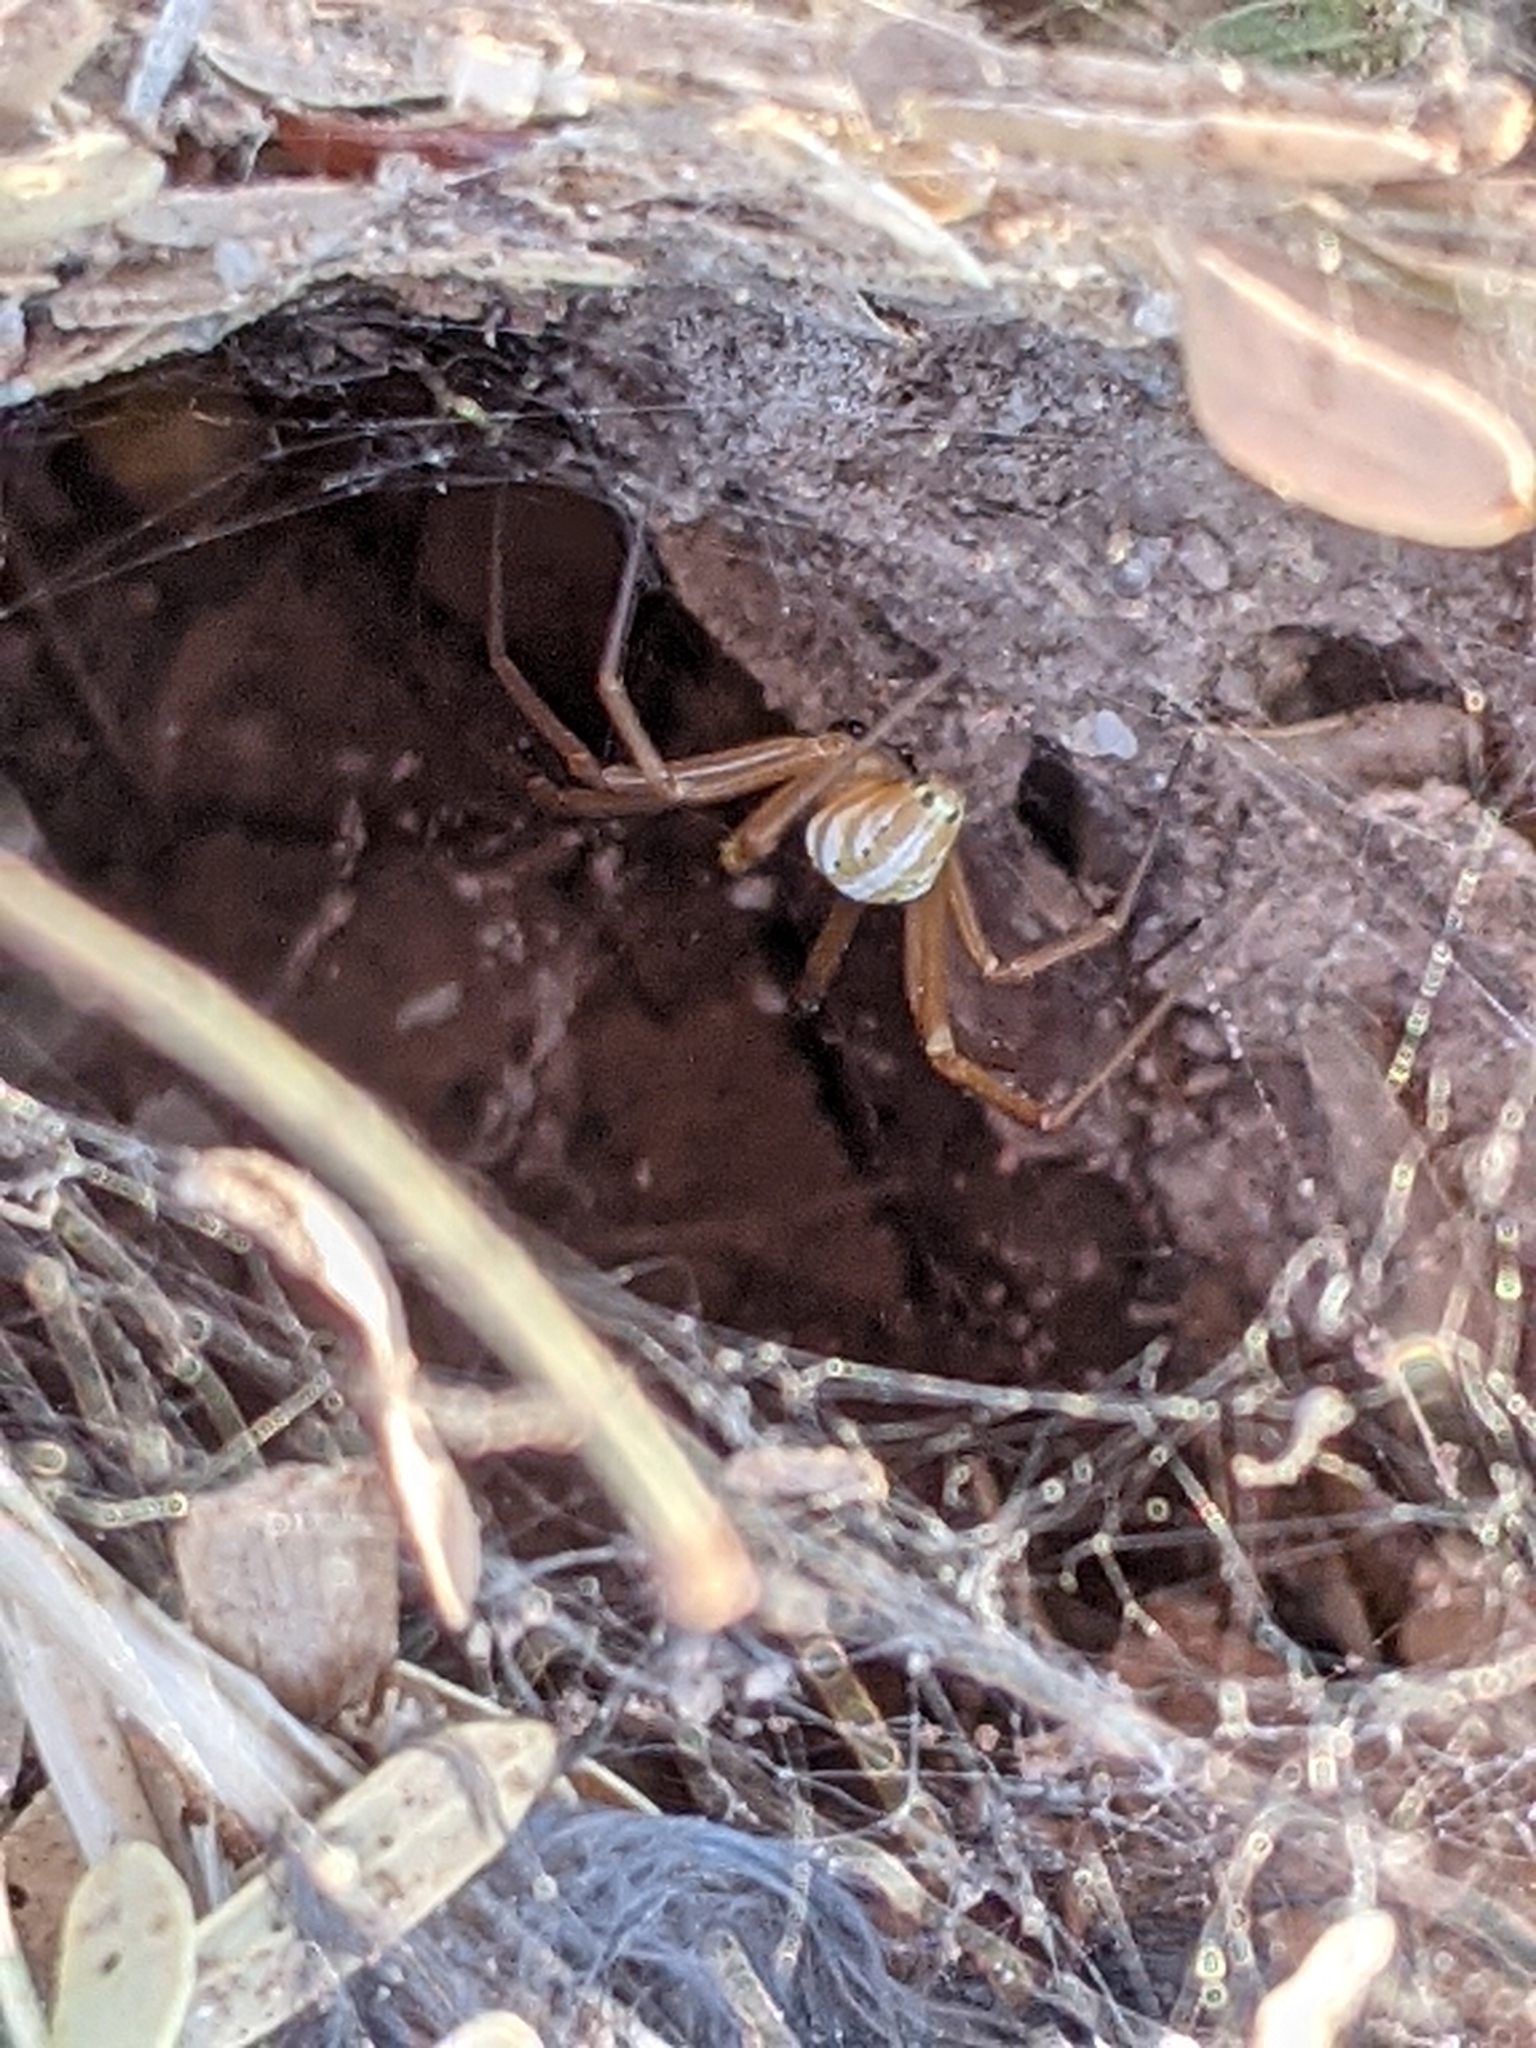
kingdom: Animalia
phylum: Arthropoda
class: Arachnida
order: Araneae
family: Theridiidae
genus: Latrodectus
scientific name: Latrodectus hesperus
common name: Western black widow
